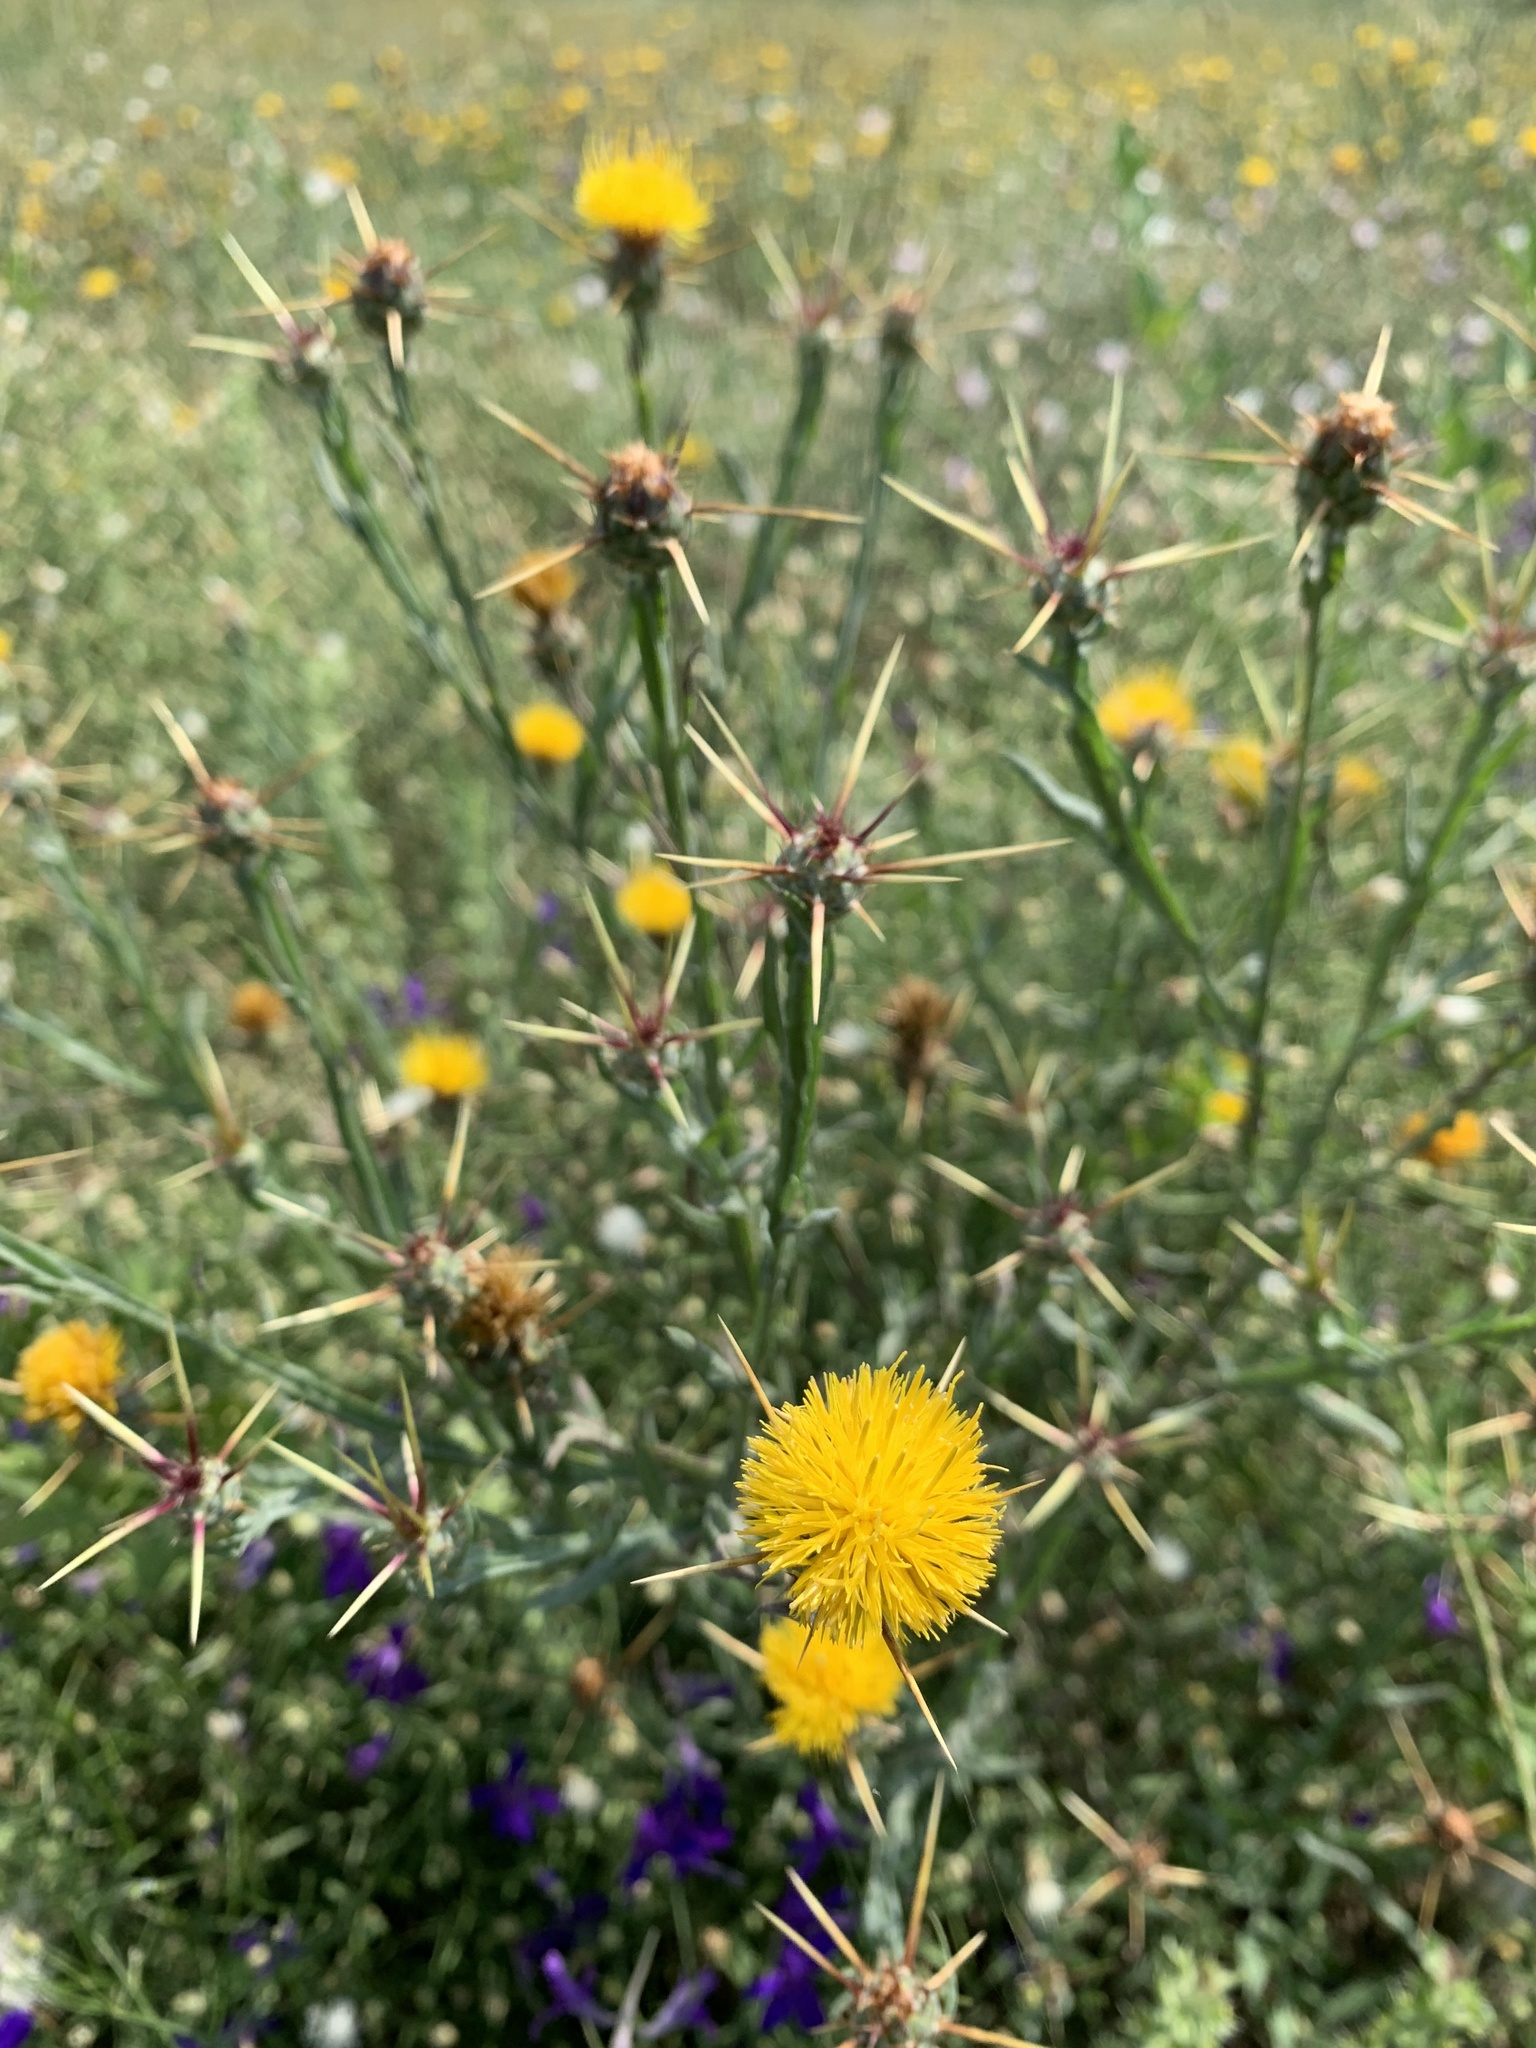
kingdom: Plantae
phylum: Tracheophyta
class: Magnoliopsida
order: Asterales
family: Asteraceae
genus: Centaurea
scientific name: Centaurea solstitialis
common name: Yellow star-thistle
